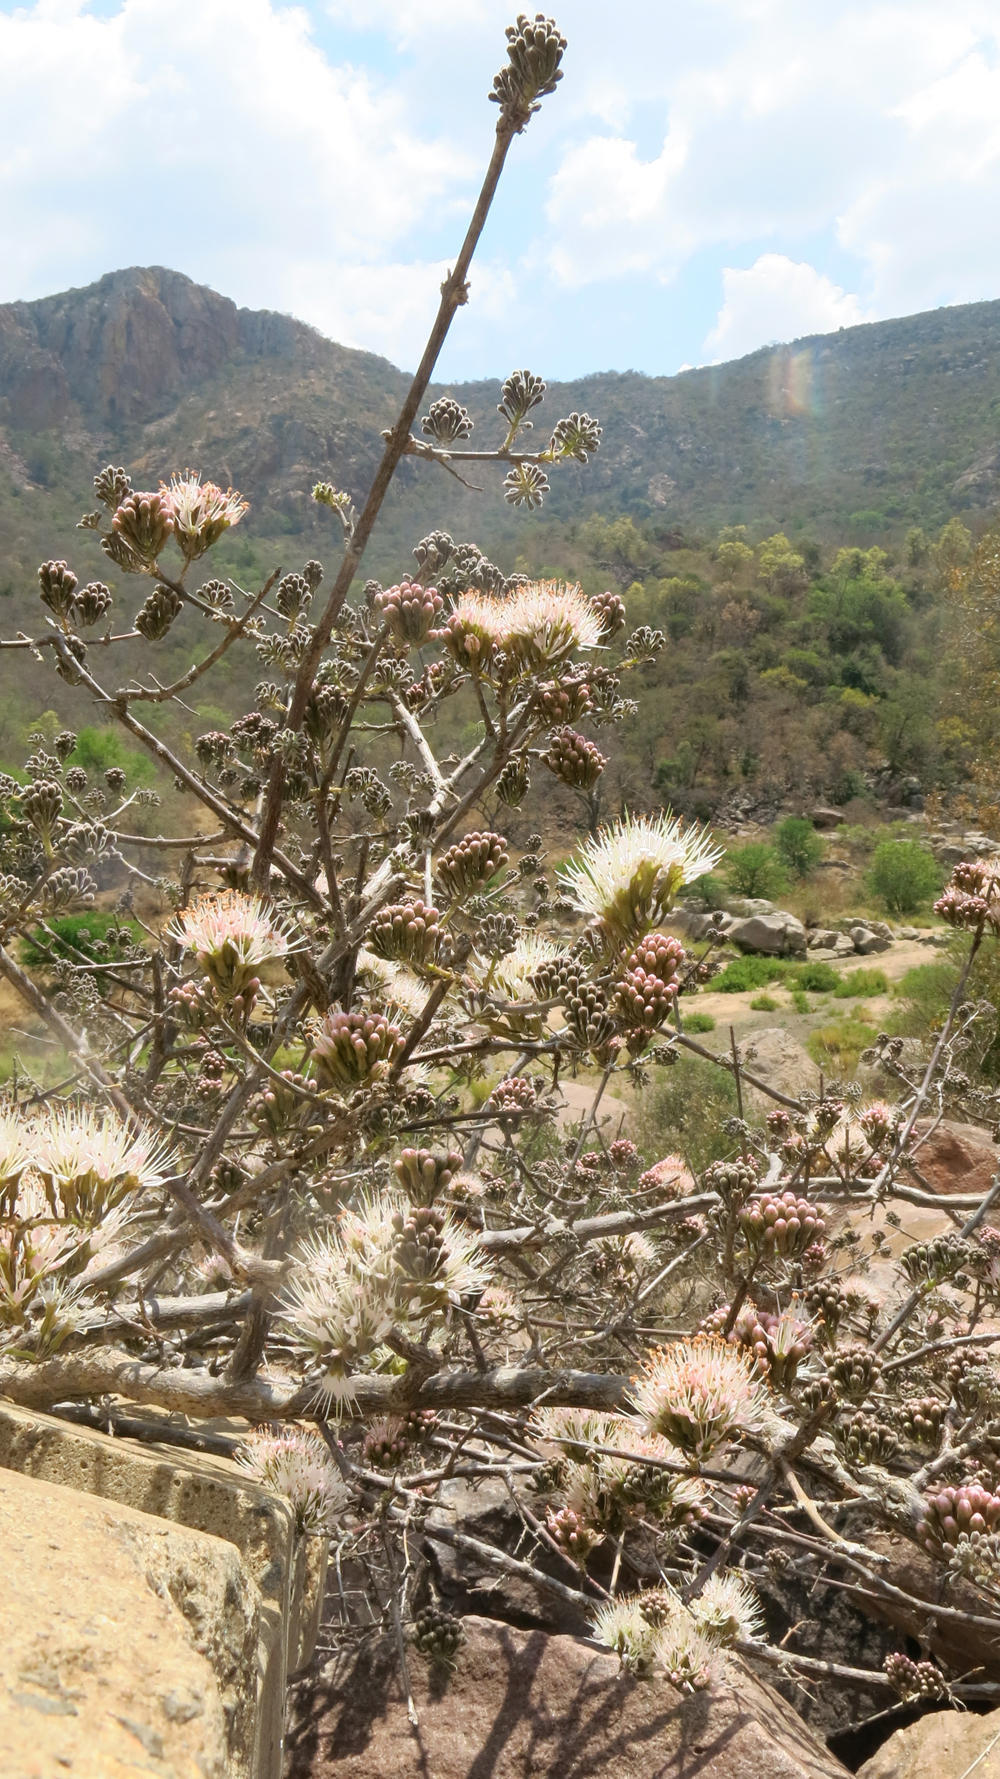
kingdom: Plantae
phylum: Tracheophyta
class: Magnoliopsida
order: Myrtales
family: Combretaceae
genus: Combretum
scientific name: Combretum mossambicense
